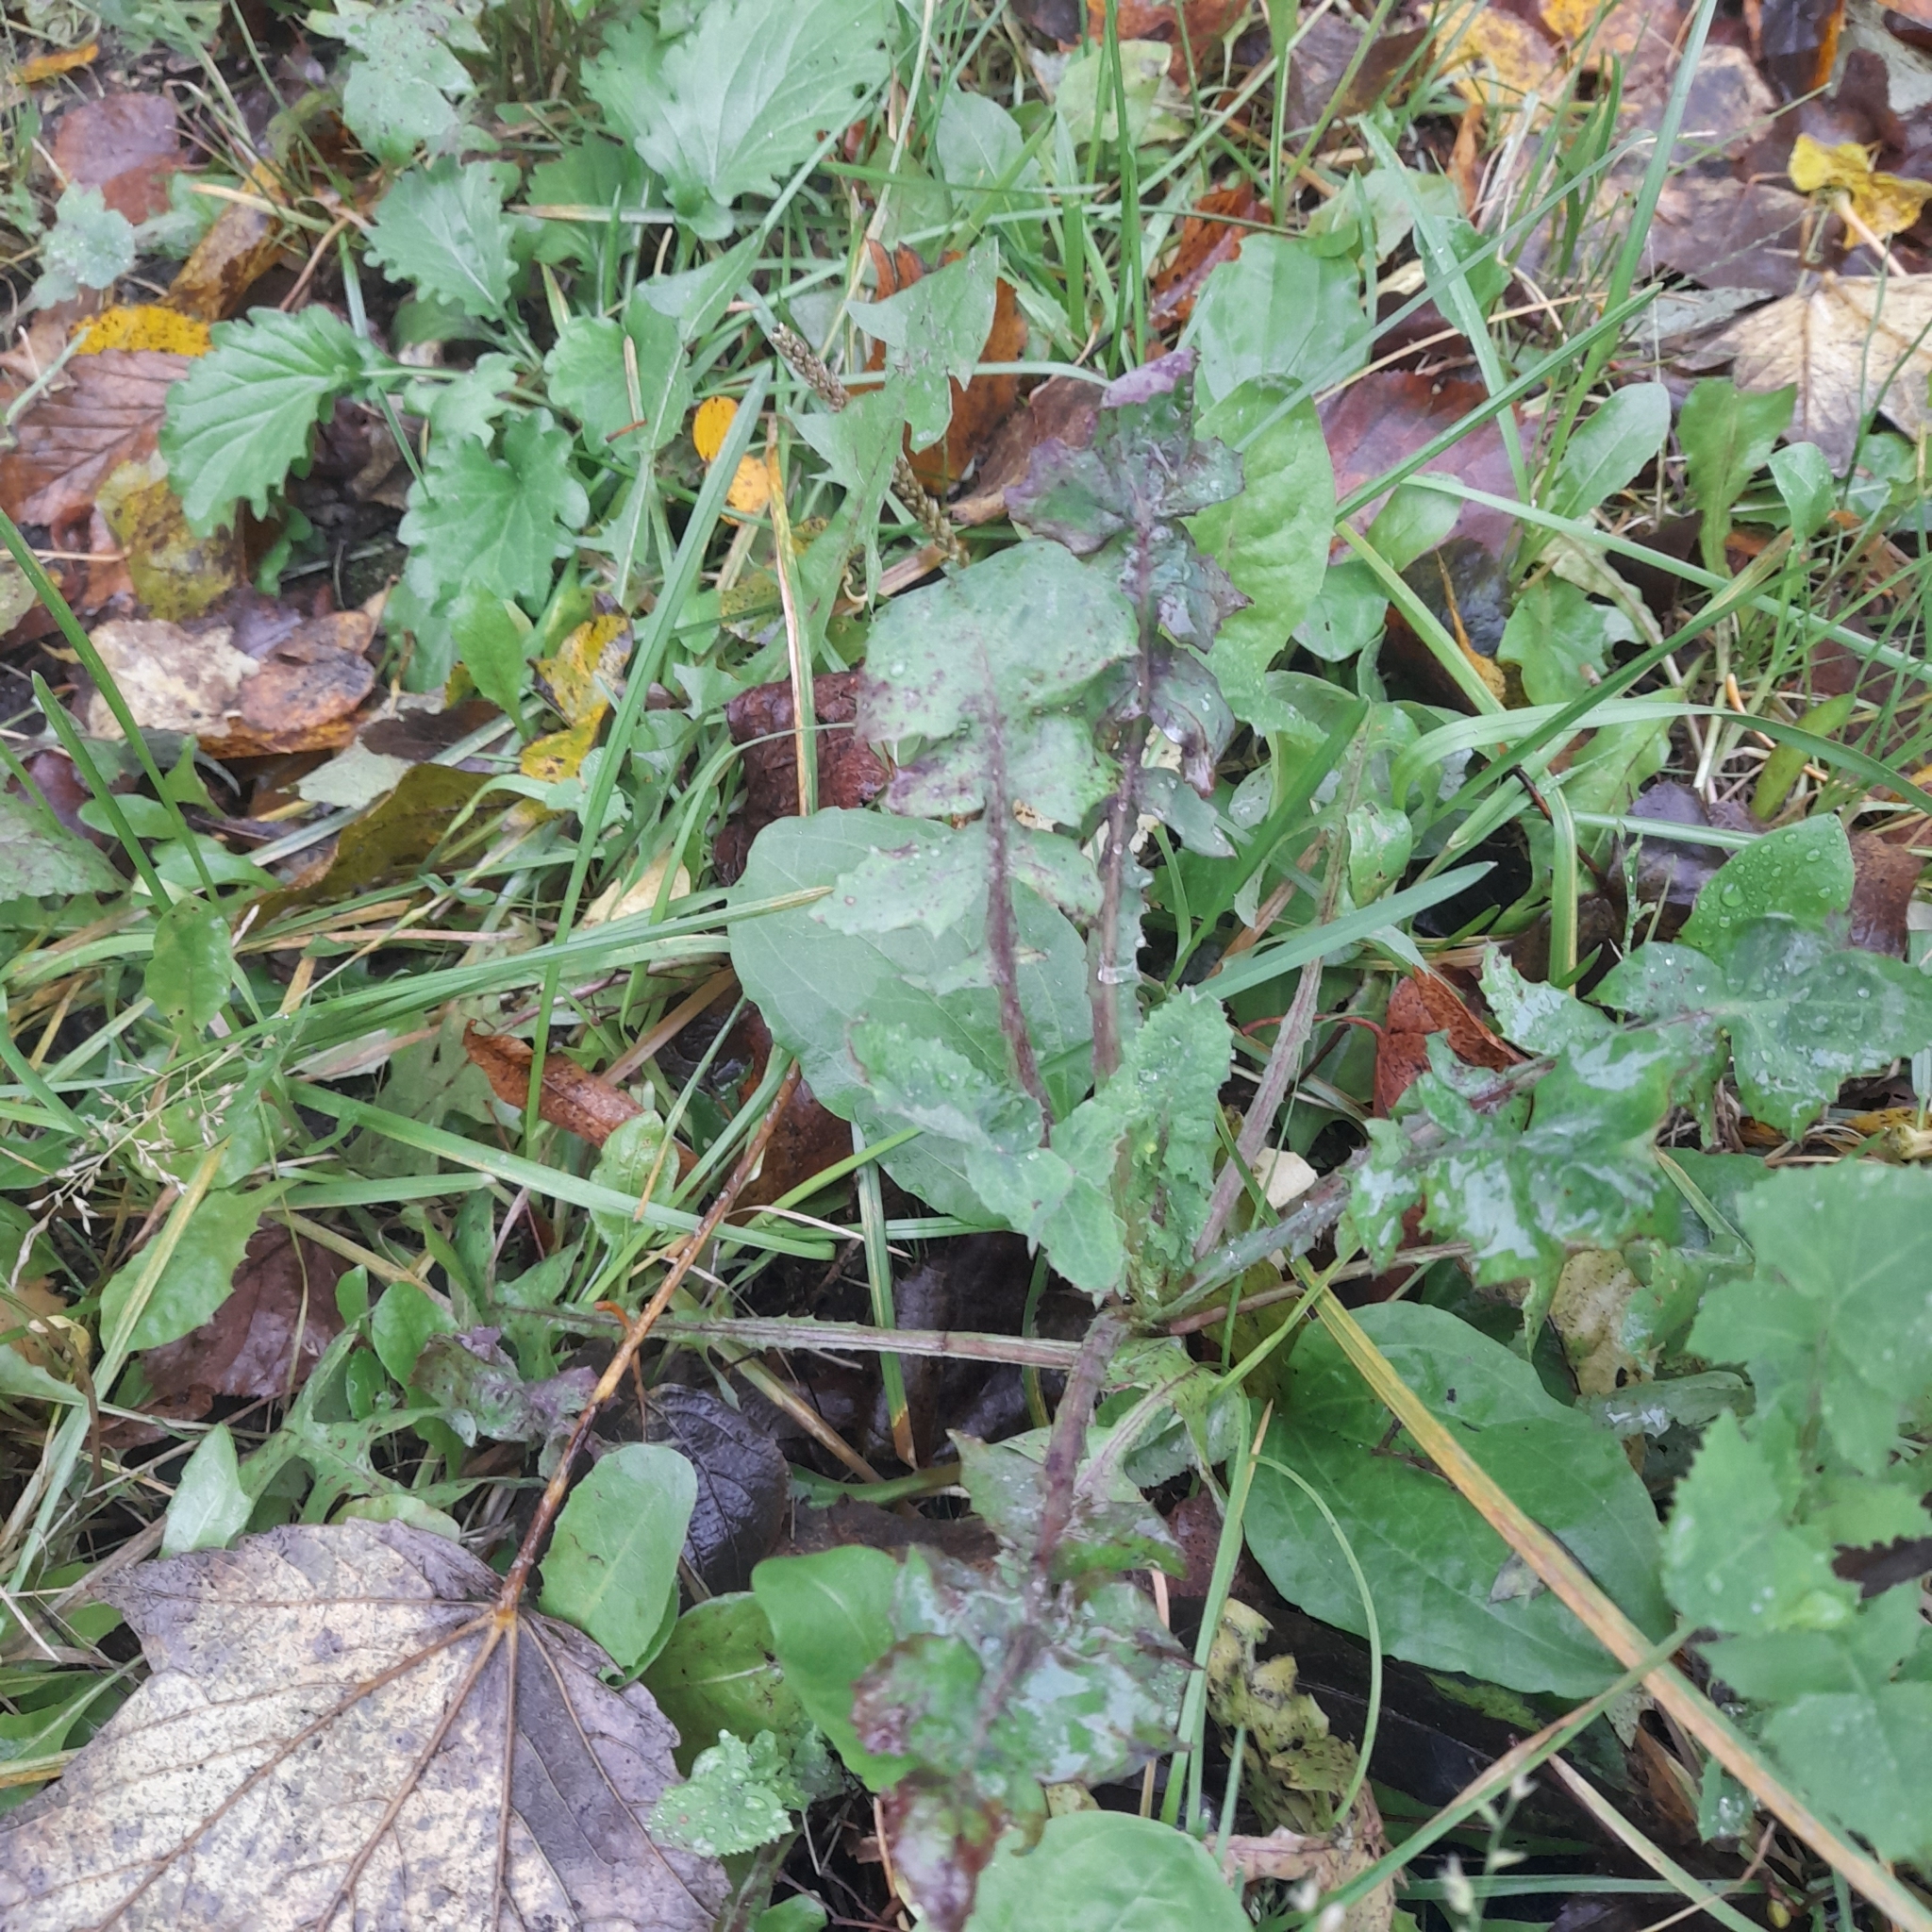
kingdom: Plantae
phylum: Tracheophyta
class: Magnoliopsida
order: Asterales
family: Asteraceae
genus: Sonchus
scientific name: Sonchus oleraceus
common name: Common sowthistle
